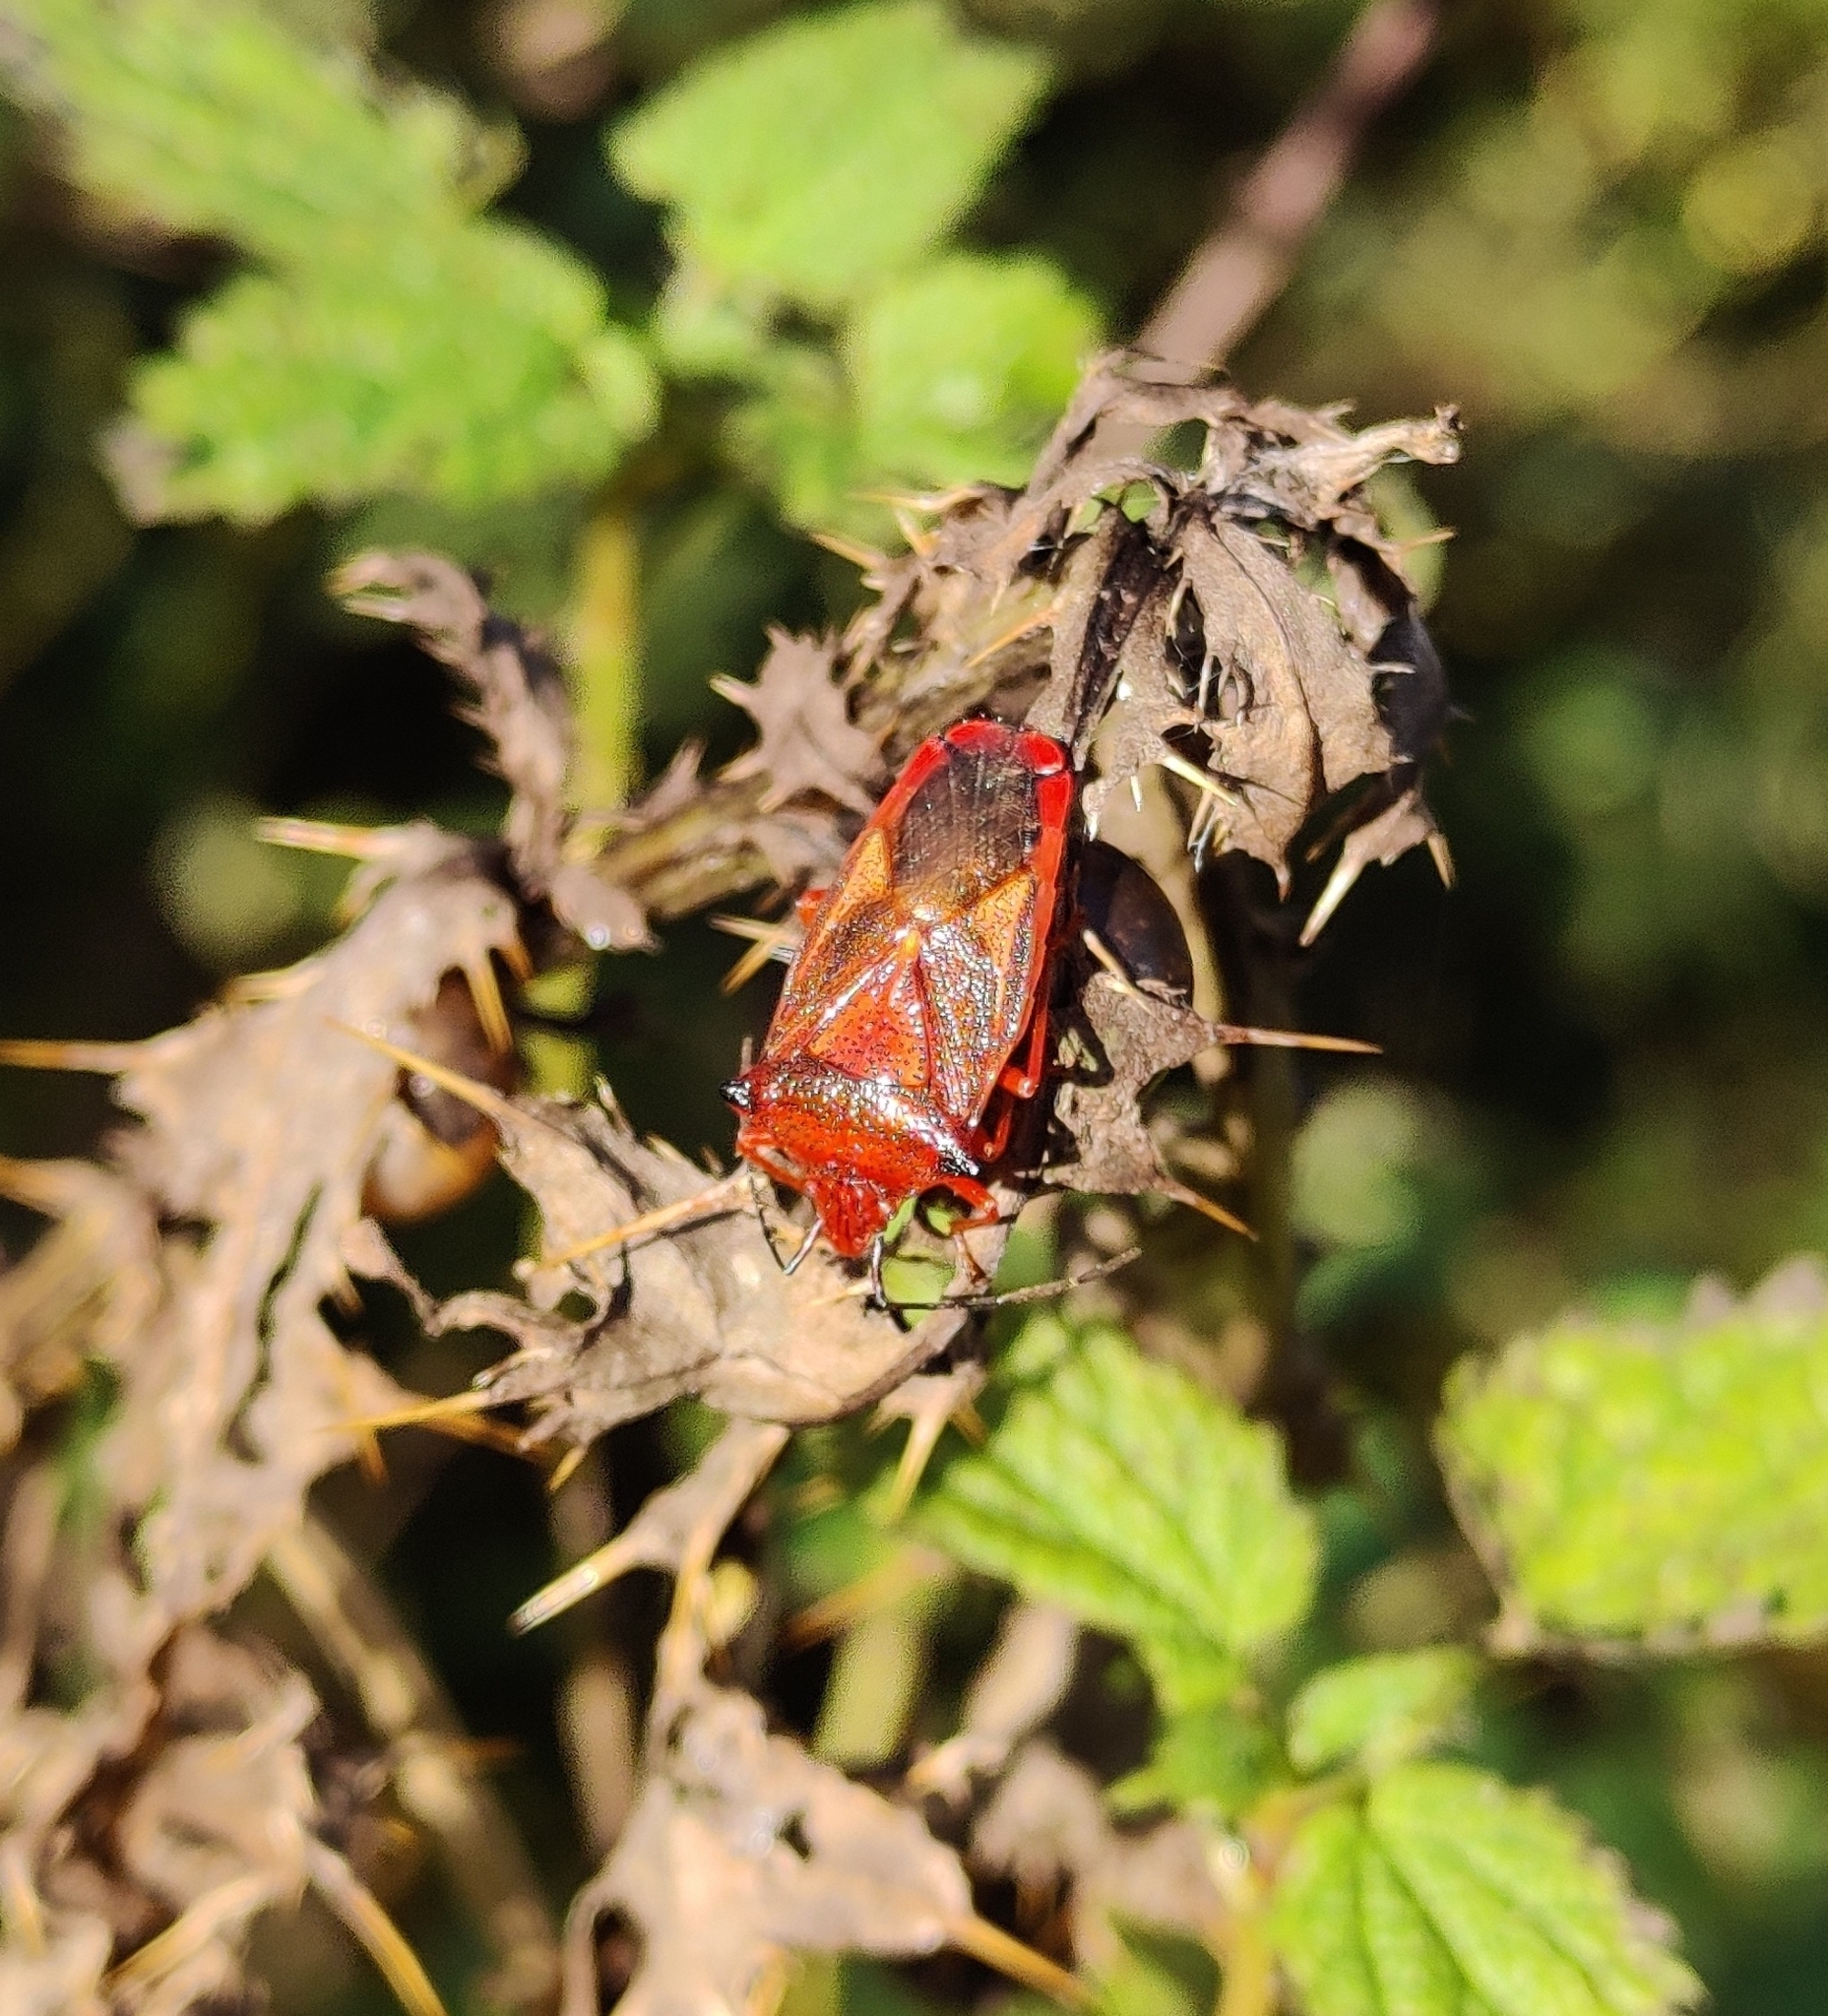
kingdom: Animalia
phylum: Arthropoda
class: Insecta
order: Hemiptera
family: Acanthosomatidae
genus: Acanthosoma
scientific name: Acanthosoma haemorrhoidale
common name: Hawthorn shieldbug
